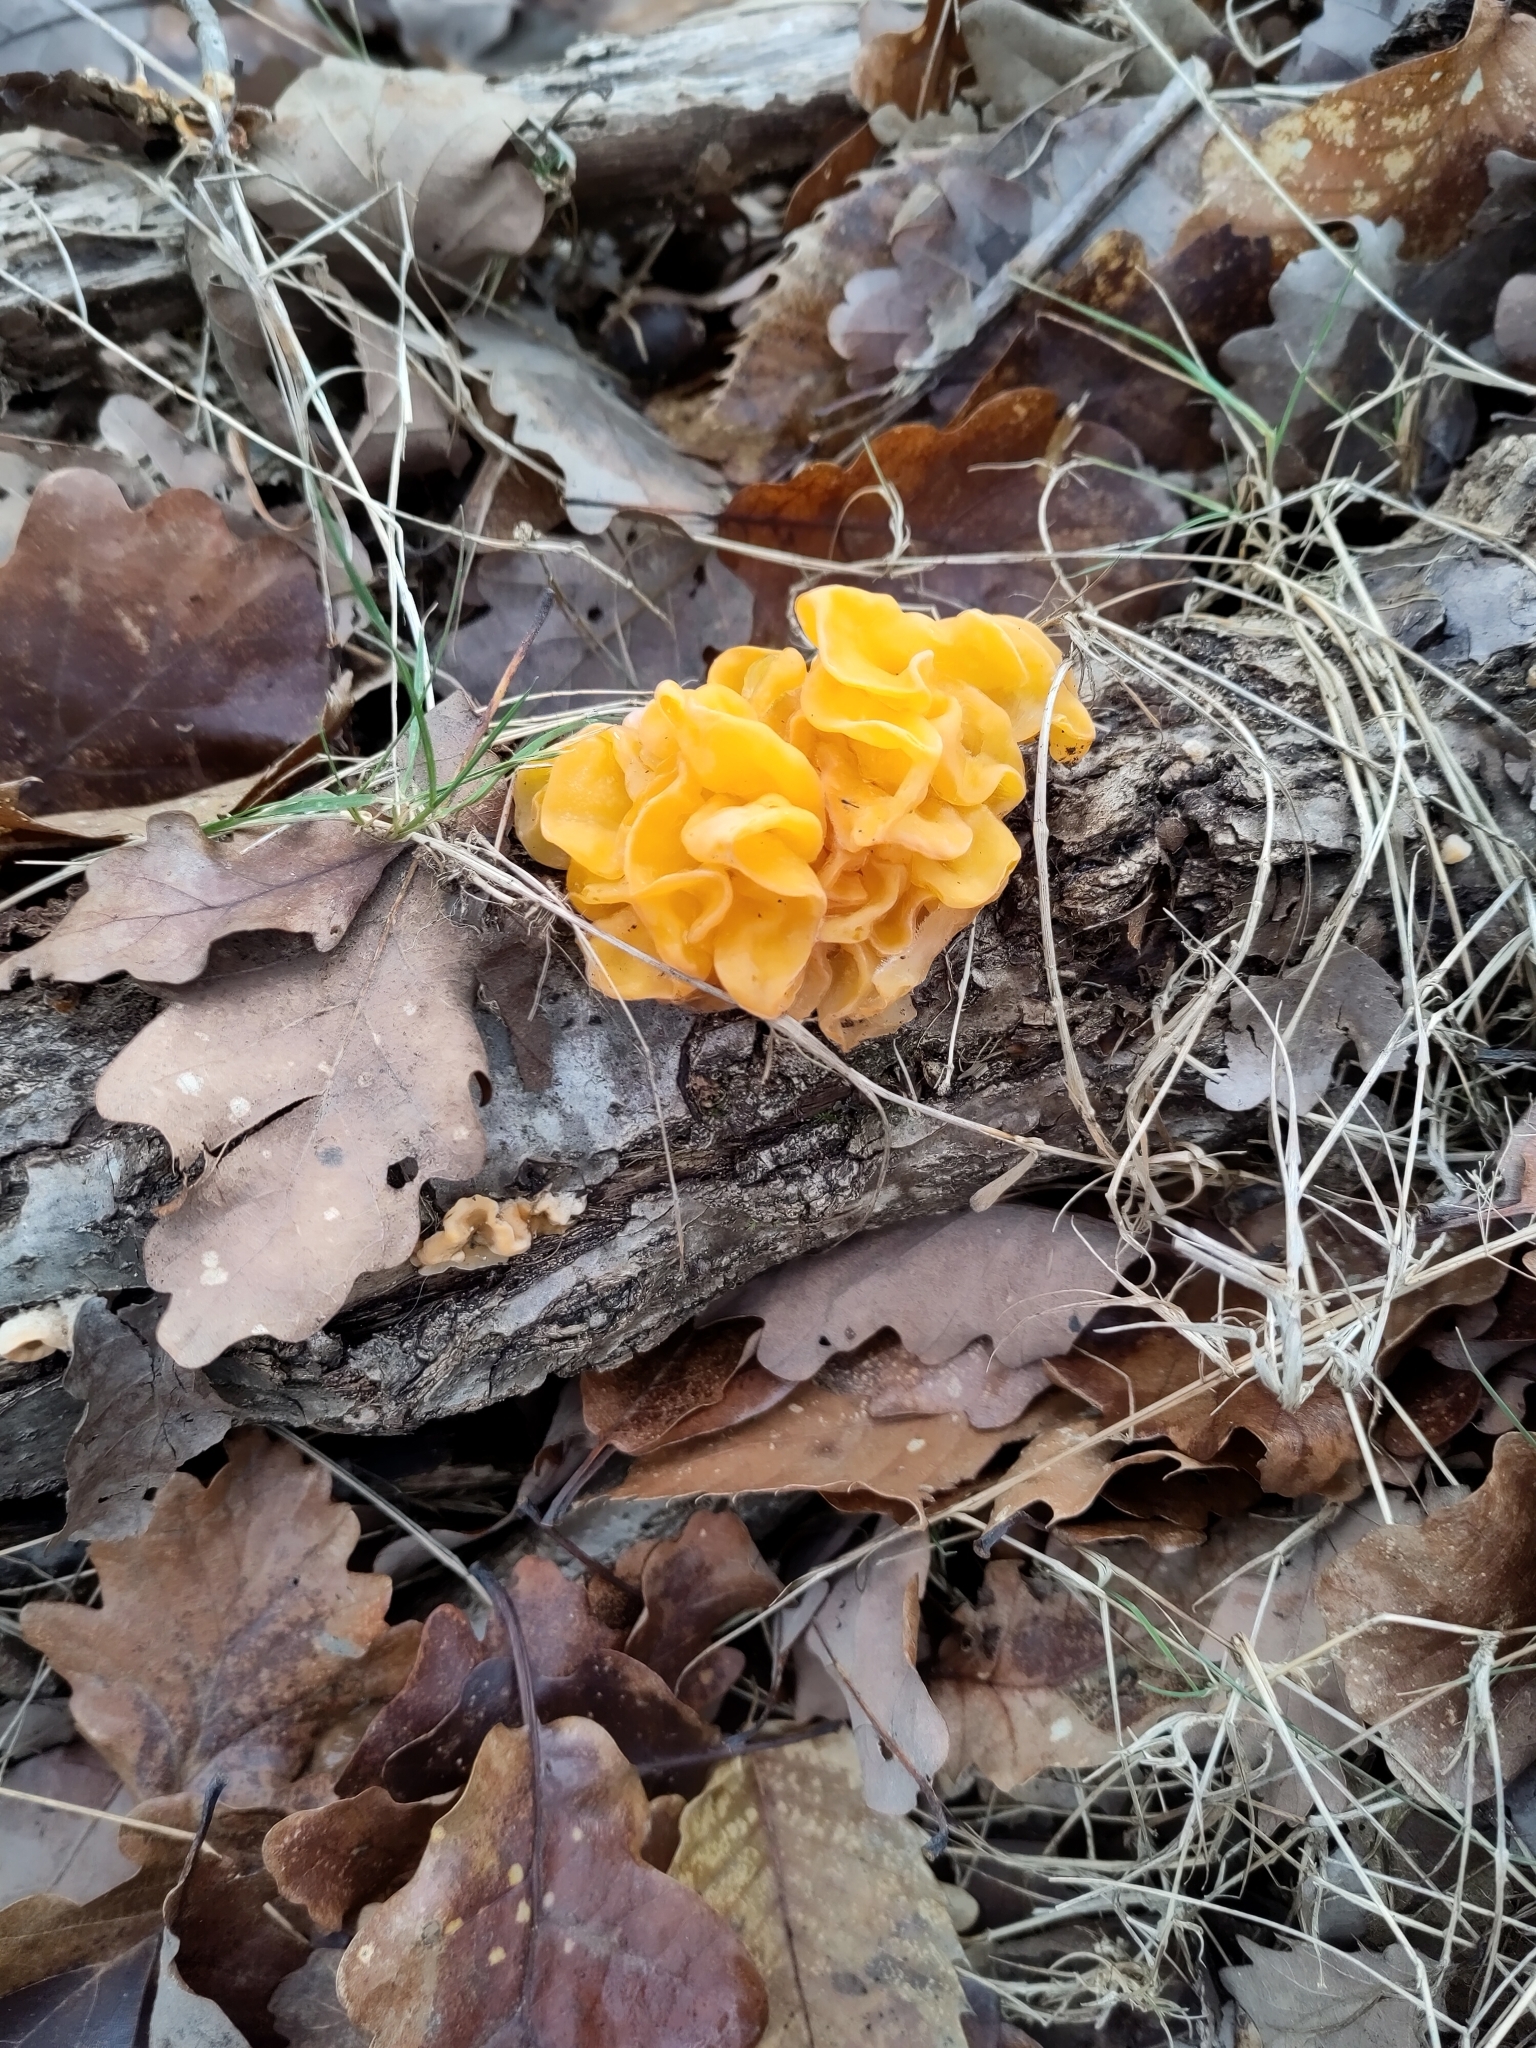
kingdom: Fungi
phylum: Basidiomycota
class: Tremellomycetes
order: Tremellales
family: Naemateliaceae
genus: Naematelia
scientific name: Naematelia aurantia
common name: Golden ear
